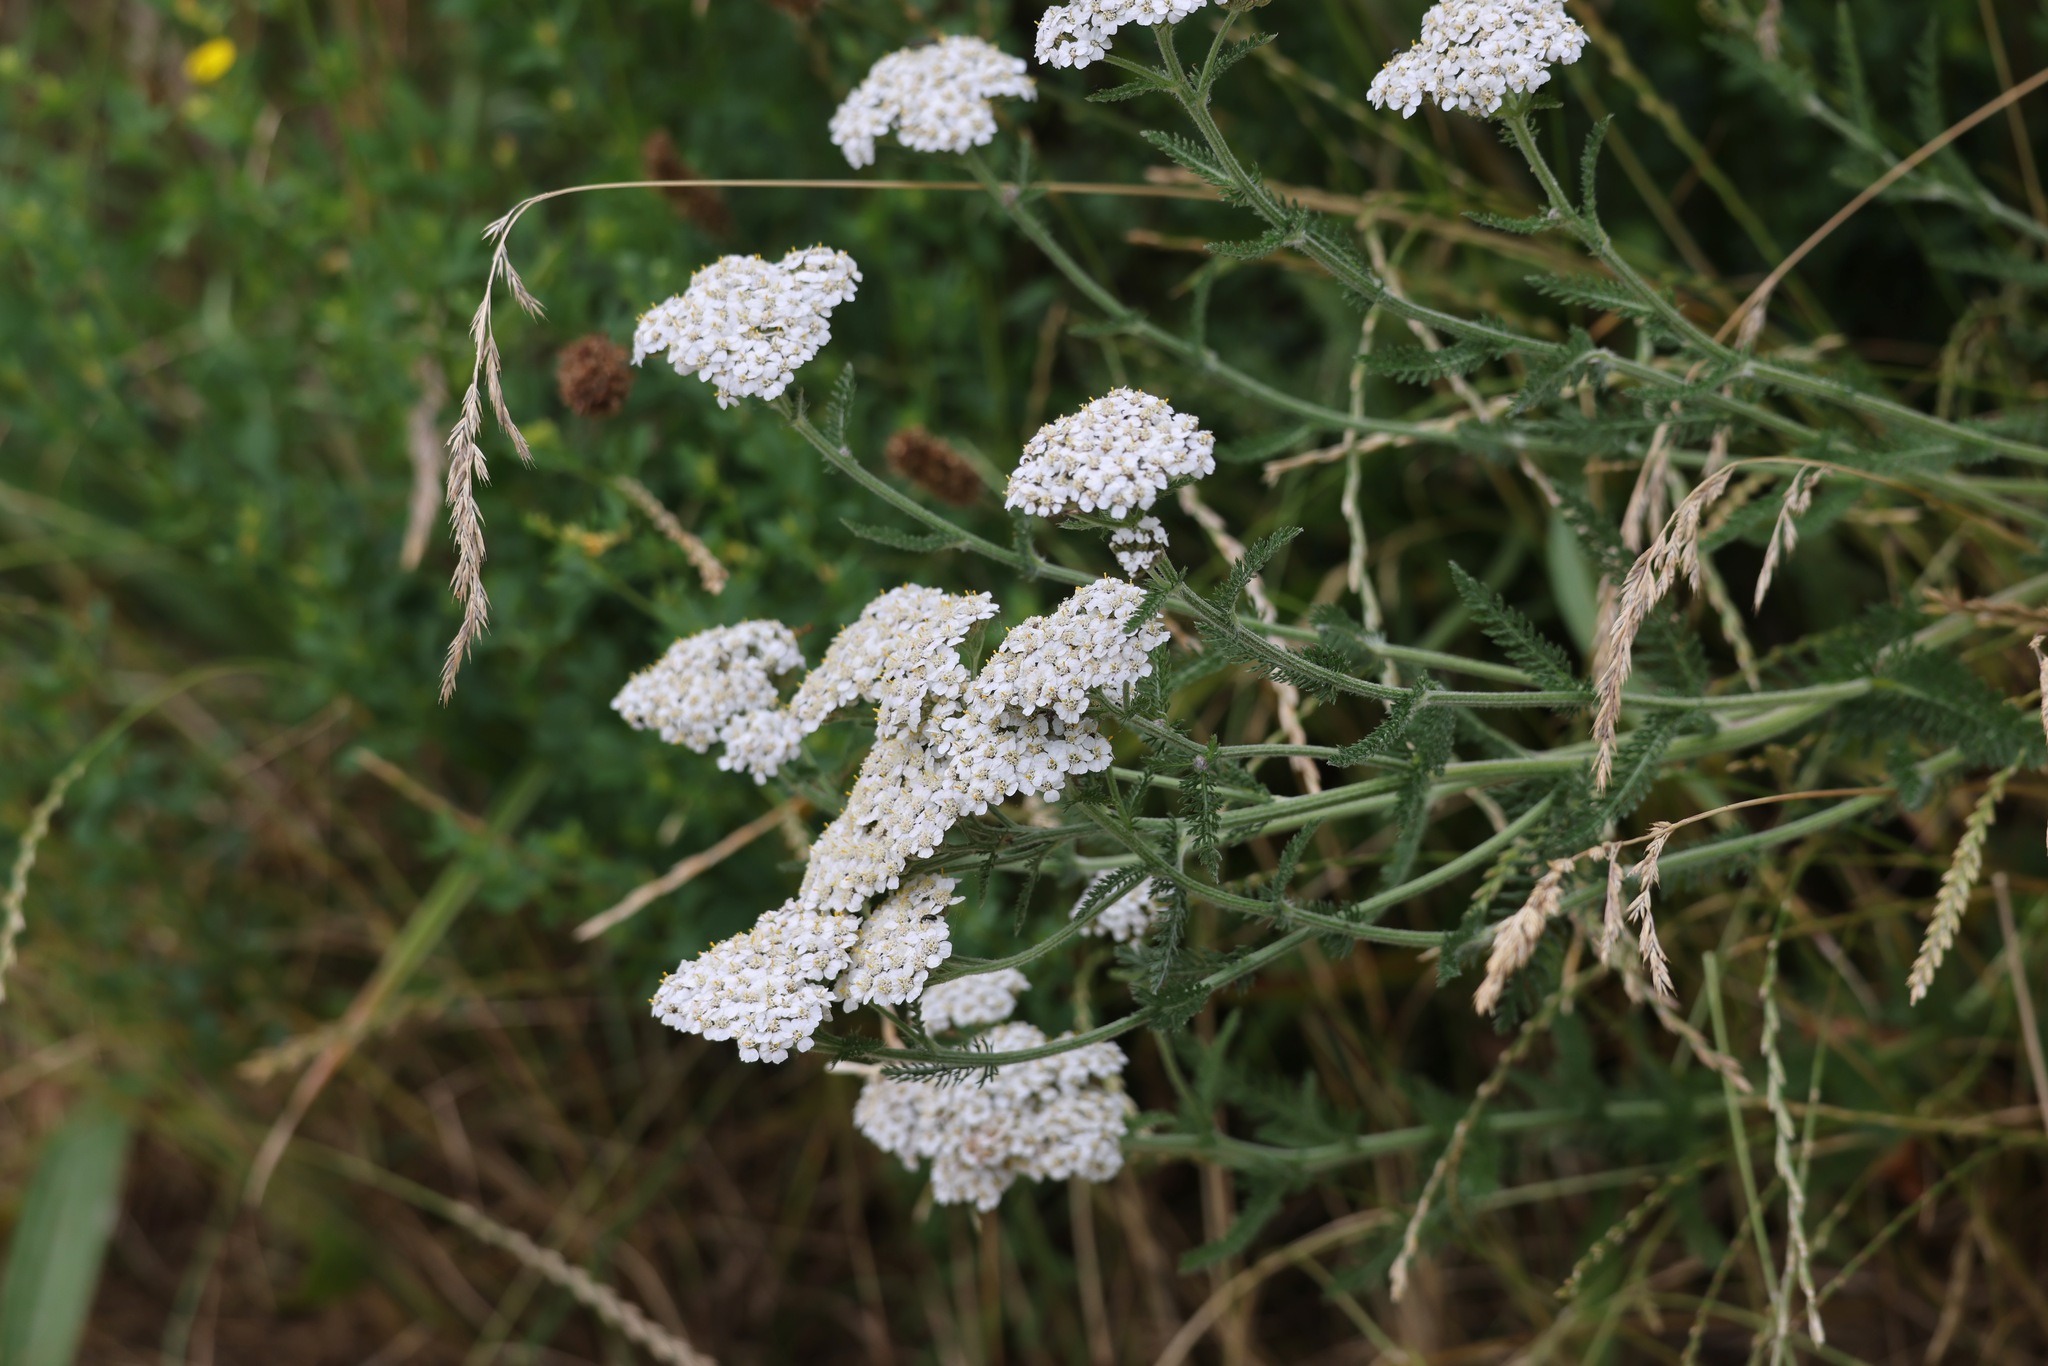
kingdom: Plantae
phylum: Tracheophyta
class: Magnoliopsida
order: Asterales
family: Asteraceae
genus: Achillea
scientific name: Achillea millefolium
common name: Yarrow
